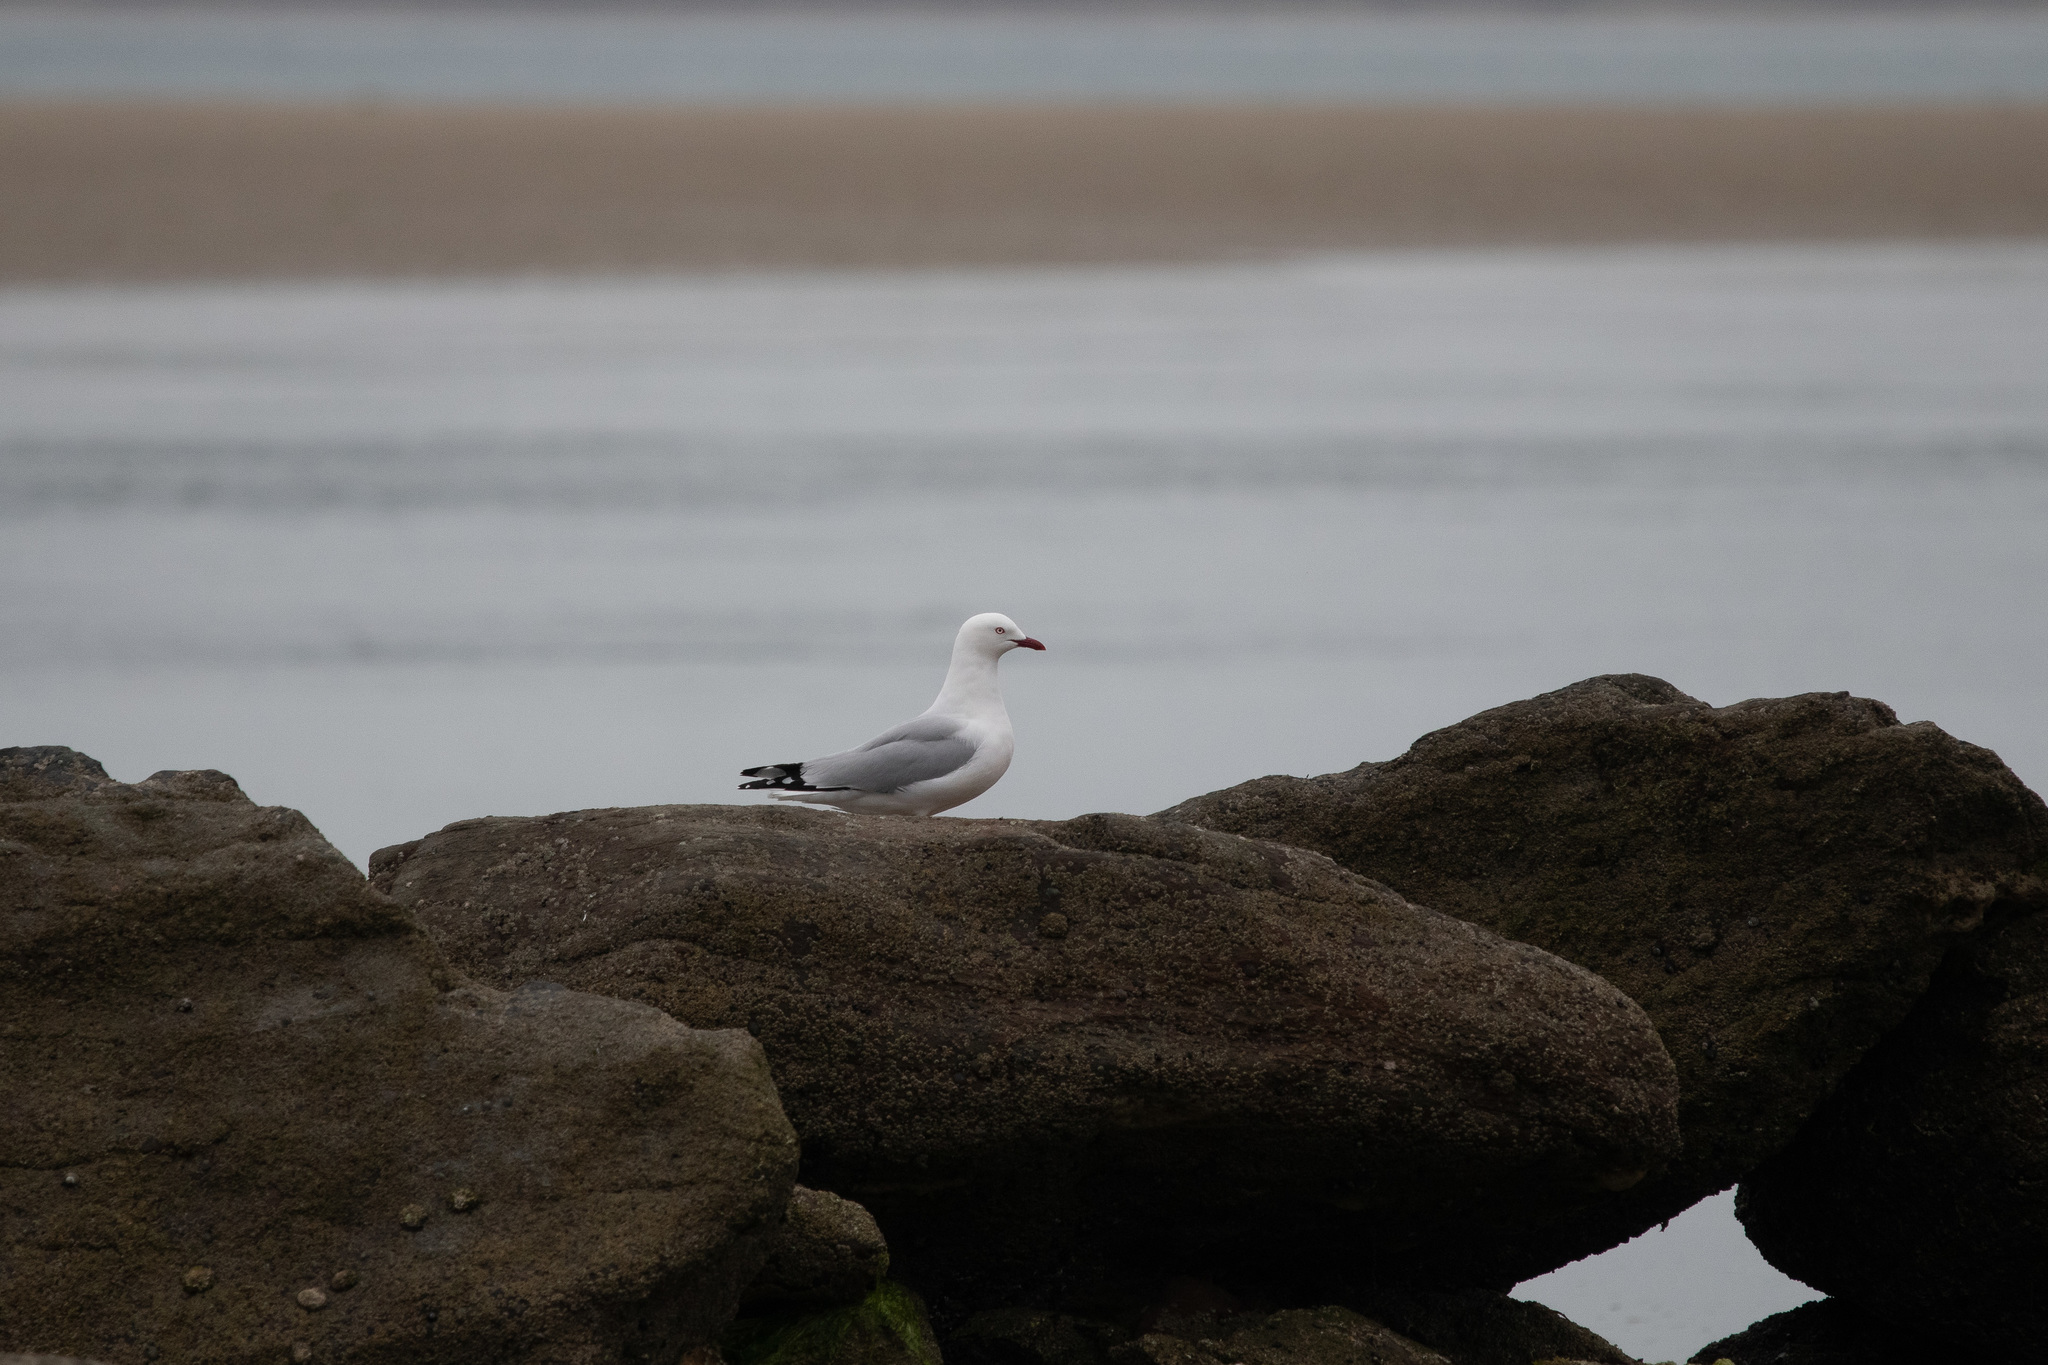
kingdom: Animalia
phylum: Chordata
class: Aves
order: Charadriiformes
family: Laridae
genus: Chroicocephalus
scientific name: Chroicocephalus novaehollandiae
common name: Silver gull
